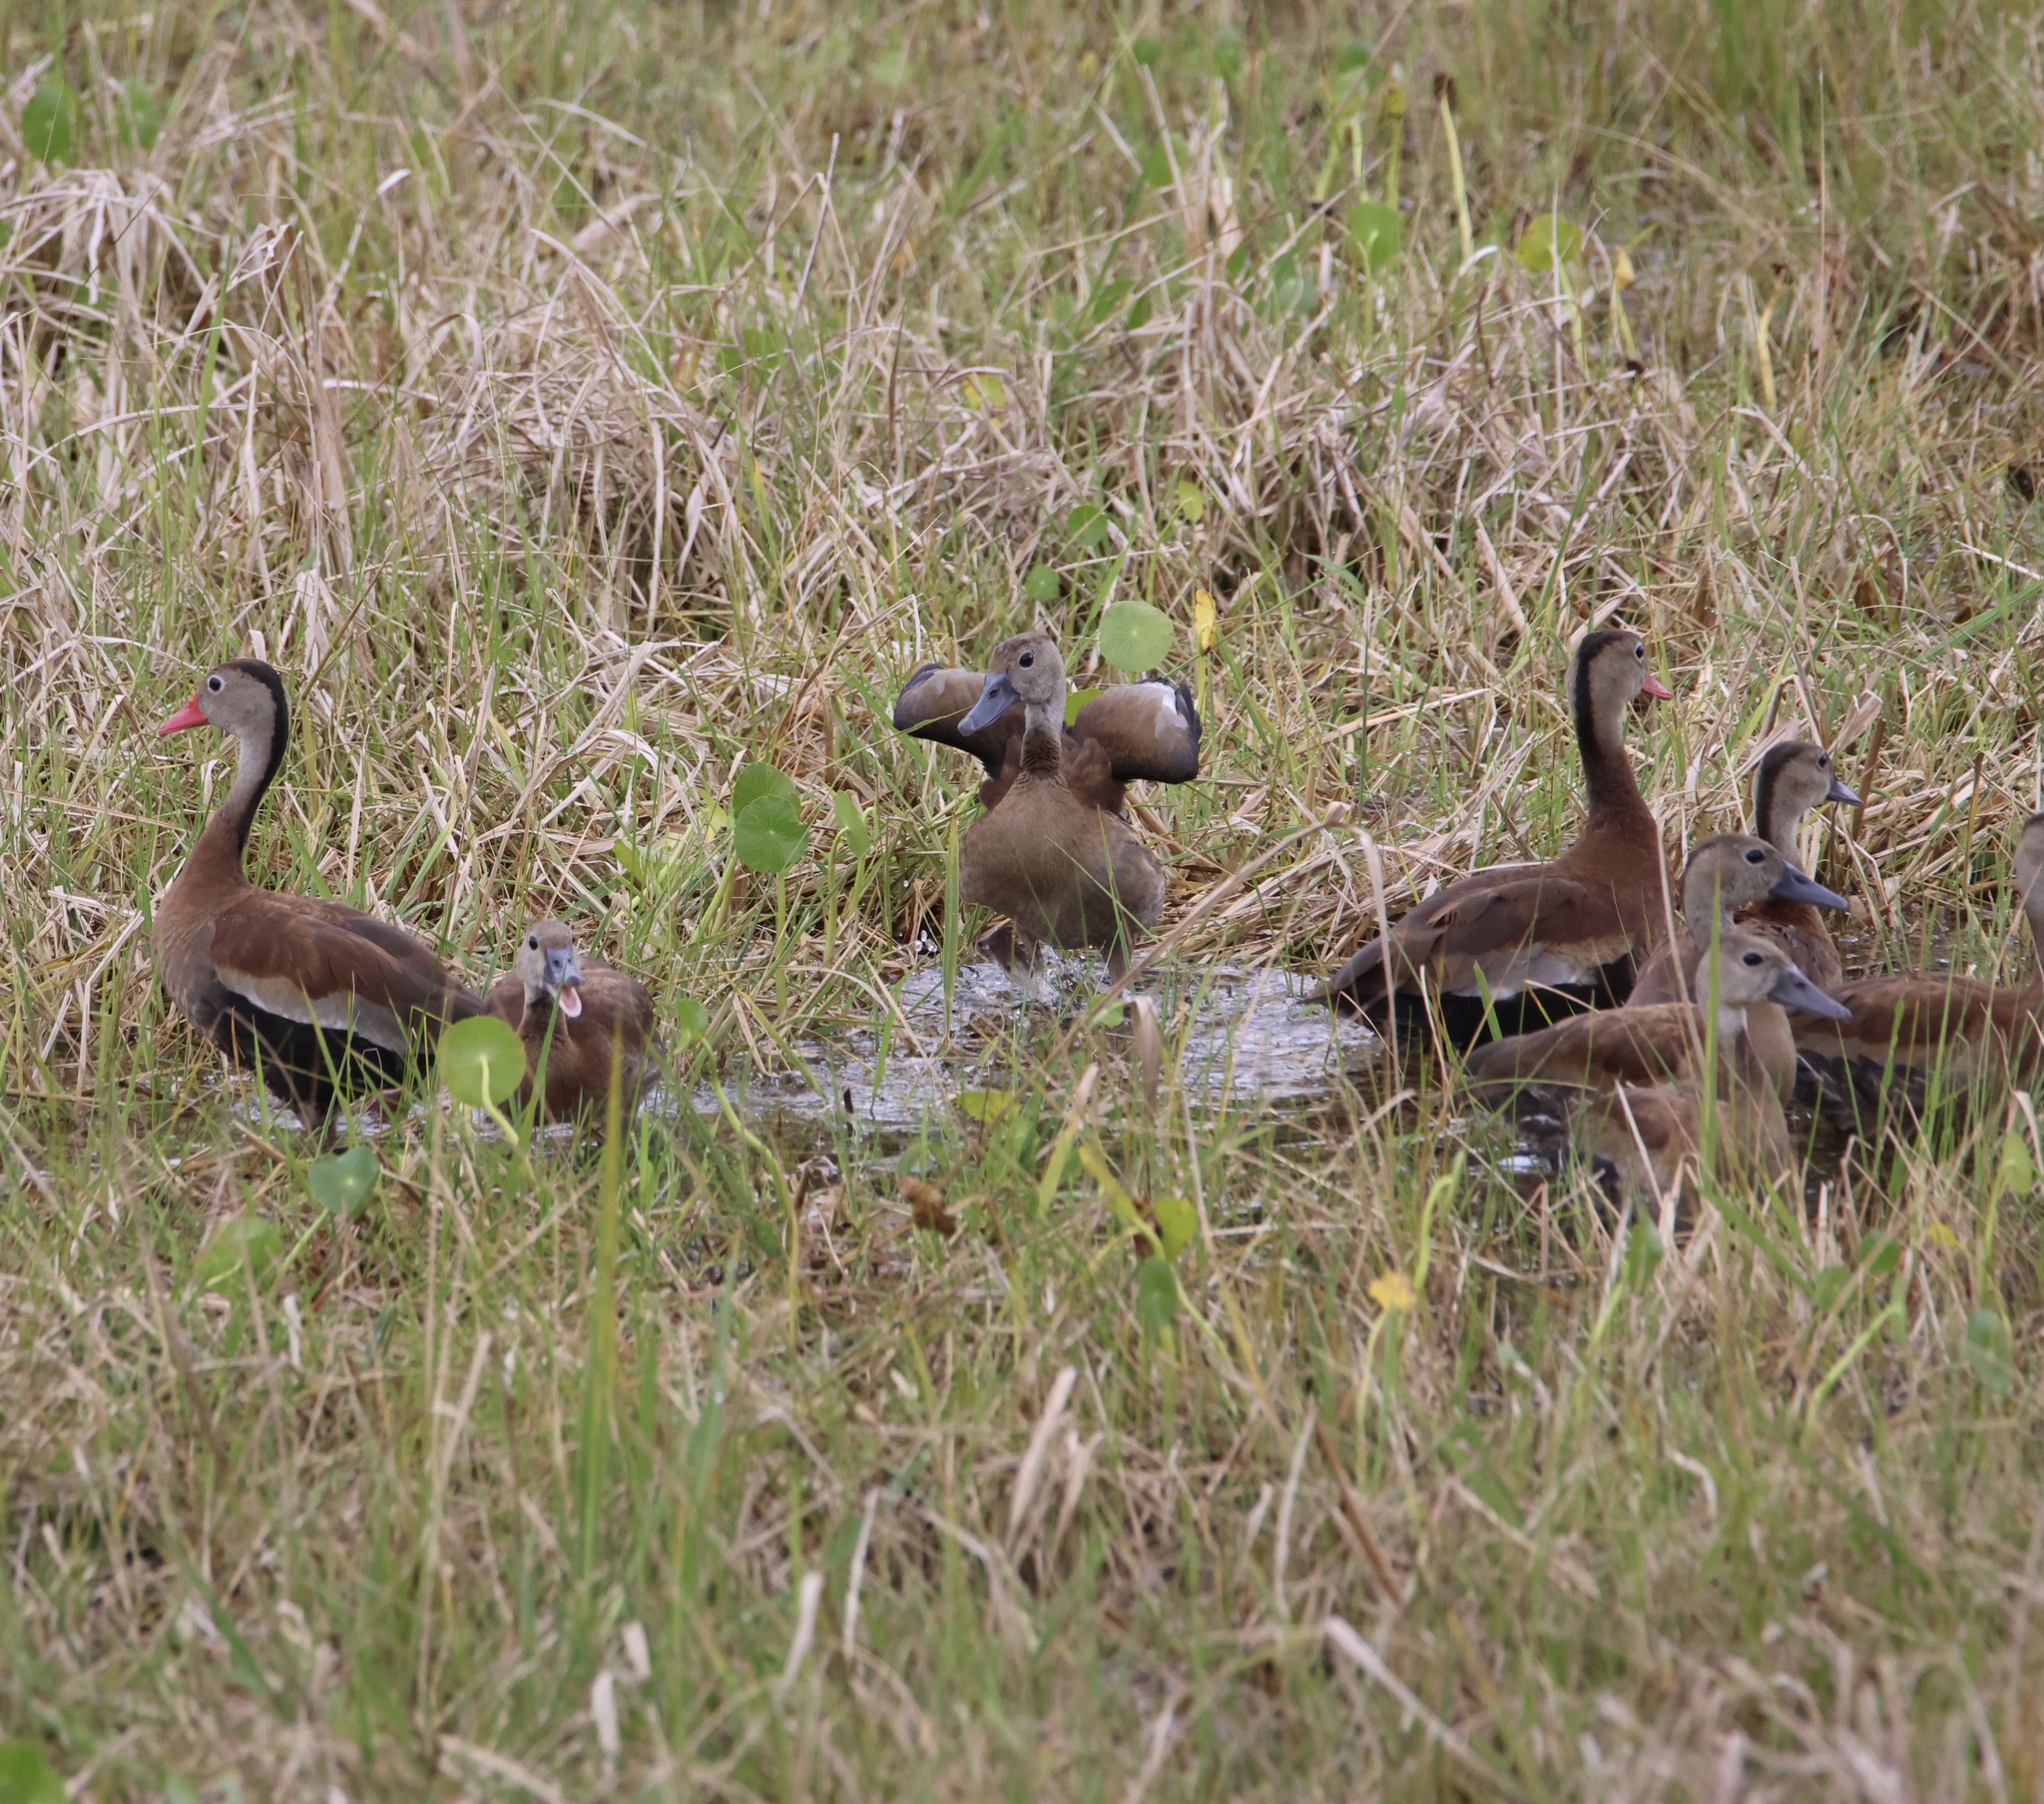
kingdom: Animalia
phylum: Chordata
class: Aves
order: Anseriformes
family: Anatidae
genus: Dendrocygna
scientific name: Dendrocygna autumnalis
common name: Black-bellied whistling duck
